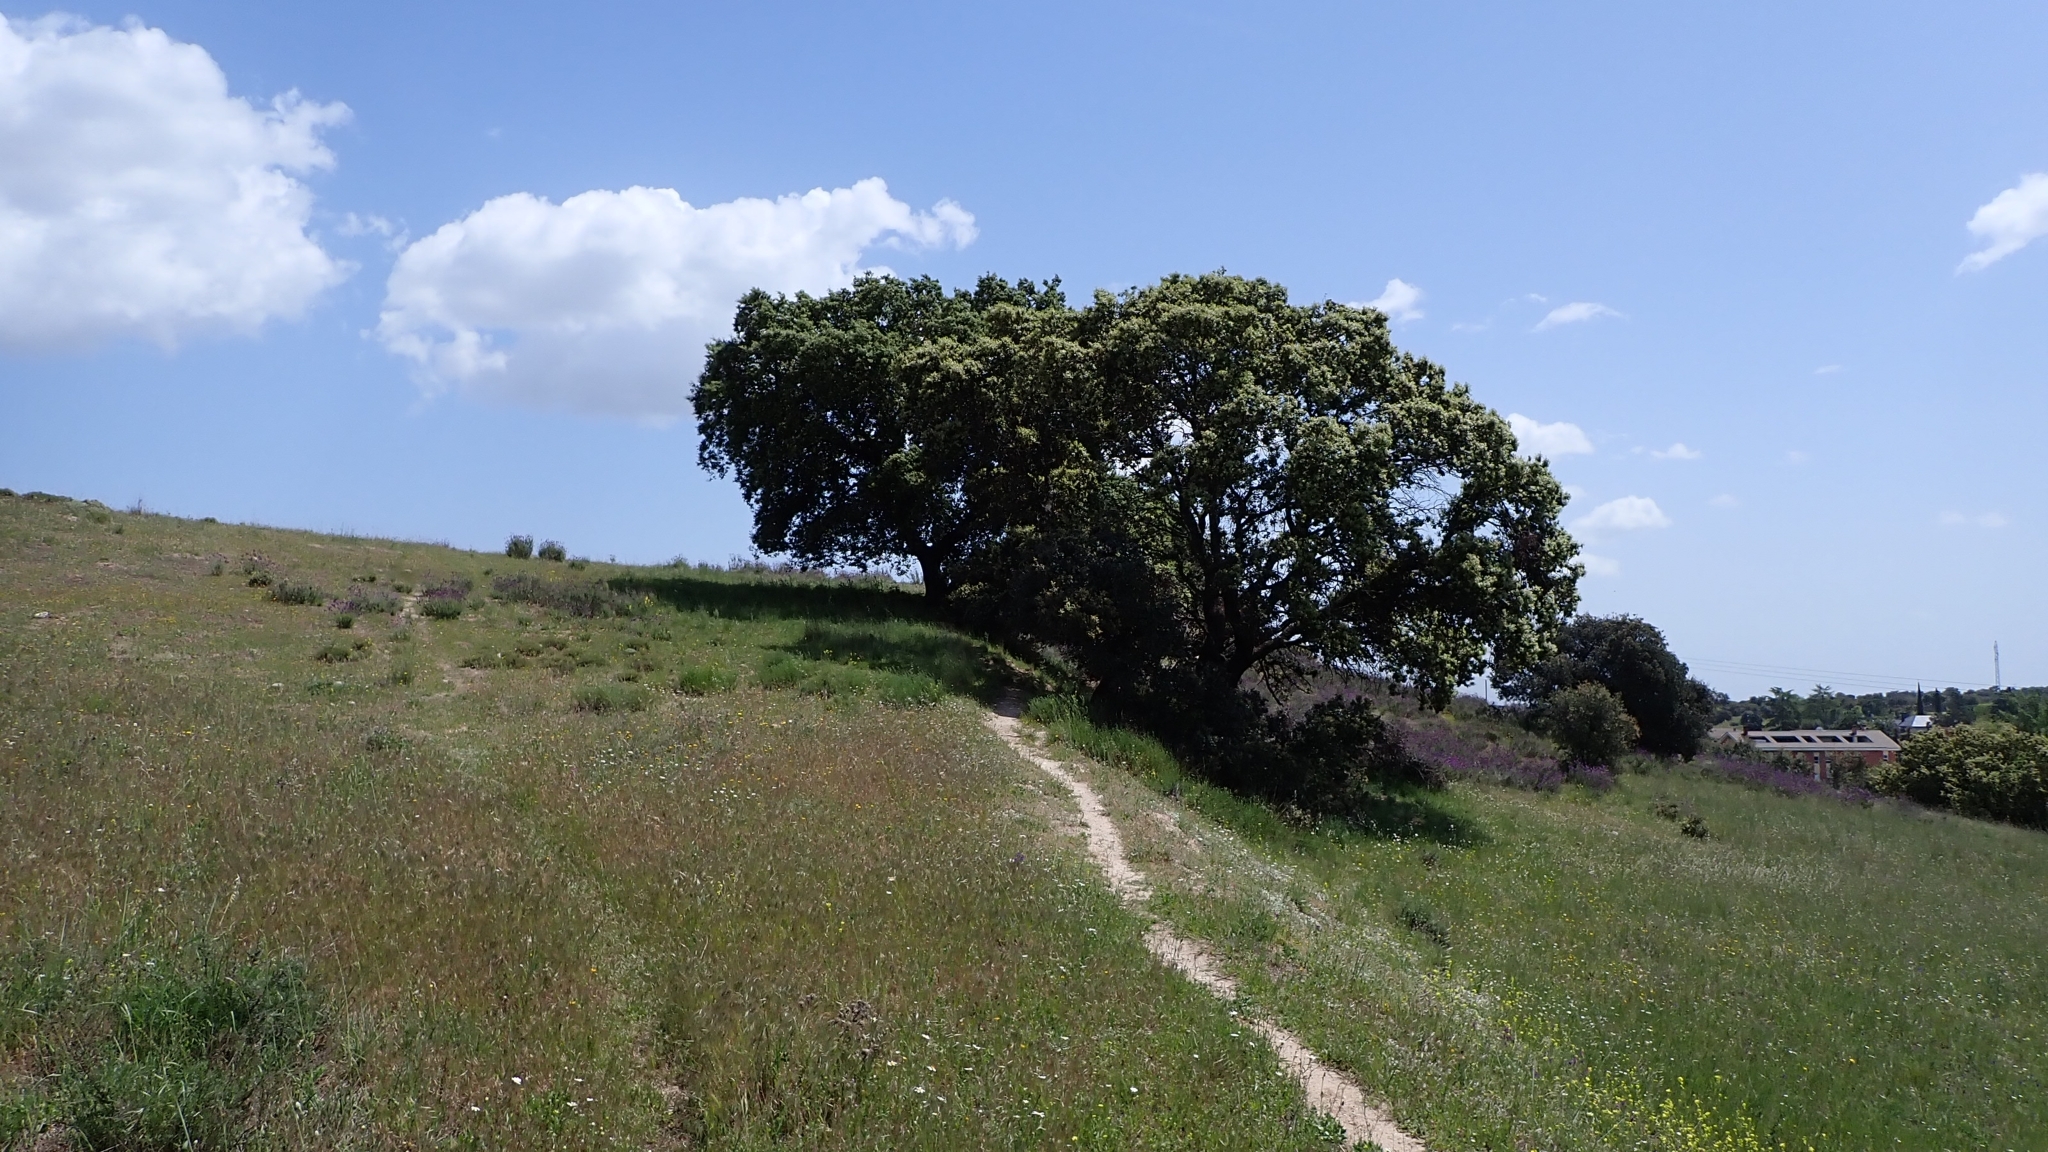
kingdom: Plantae
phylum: Tracheophyta
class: Magnoliopsida
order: Fagales
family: Fagaceae
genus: Quercus
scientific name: Quercus rotundifolia
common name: Holm oak
